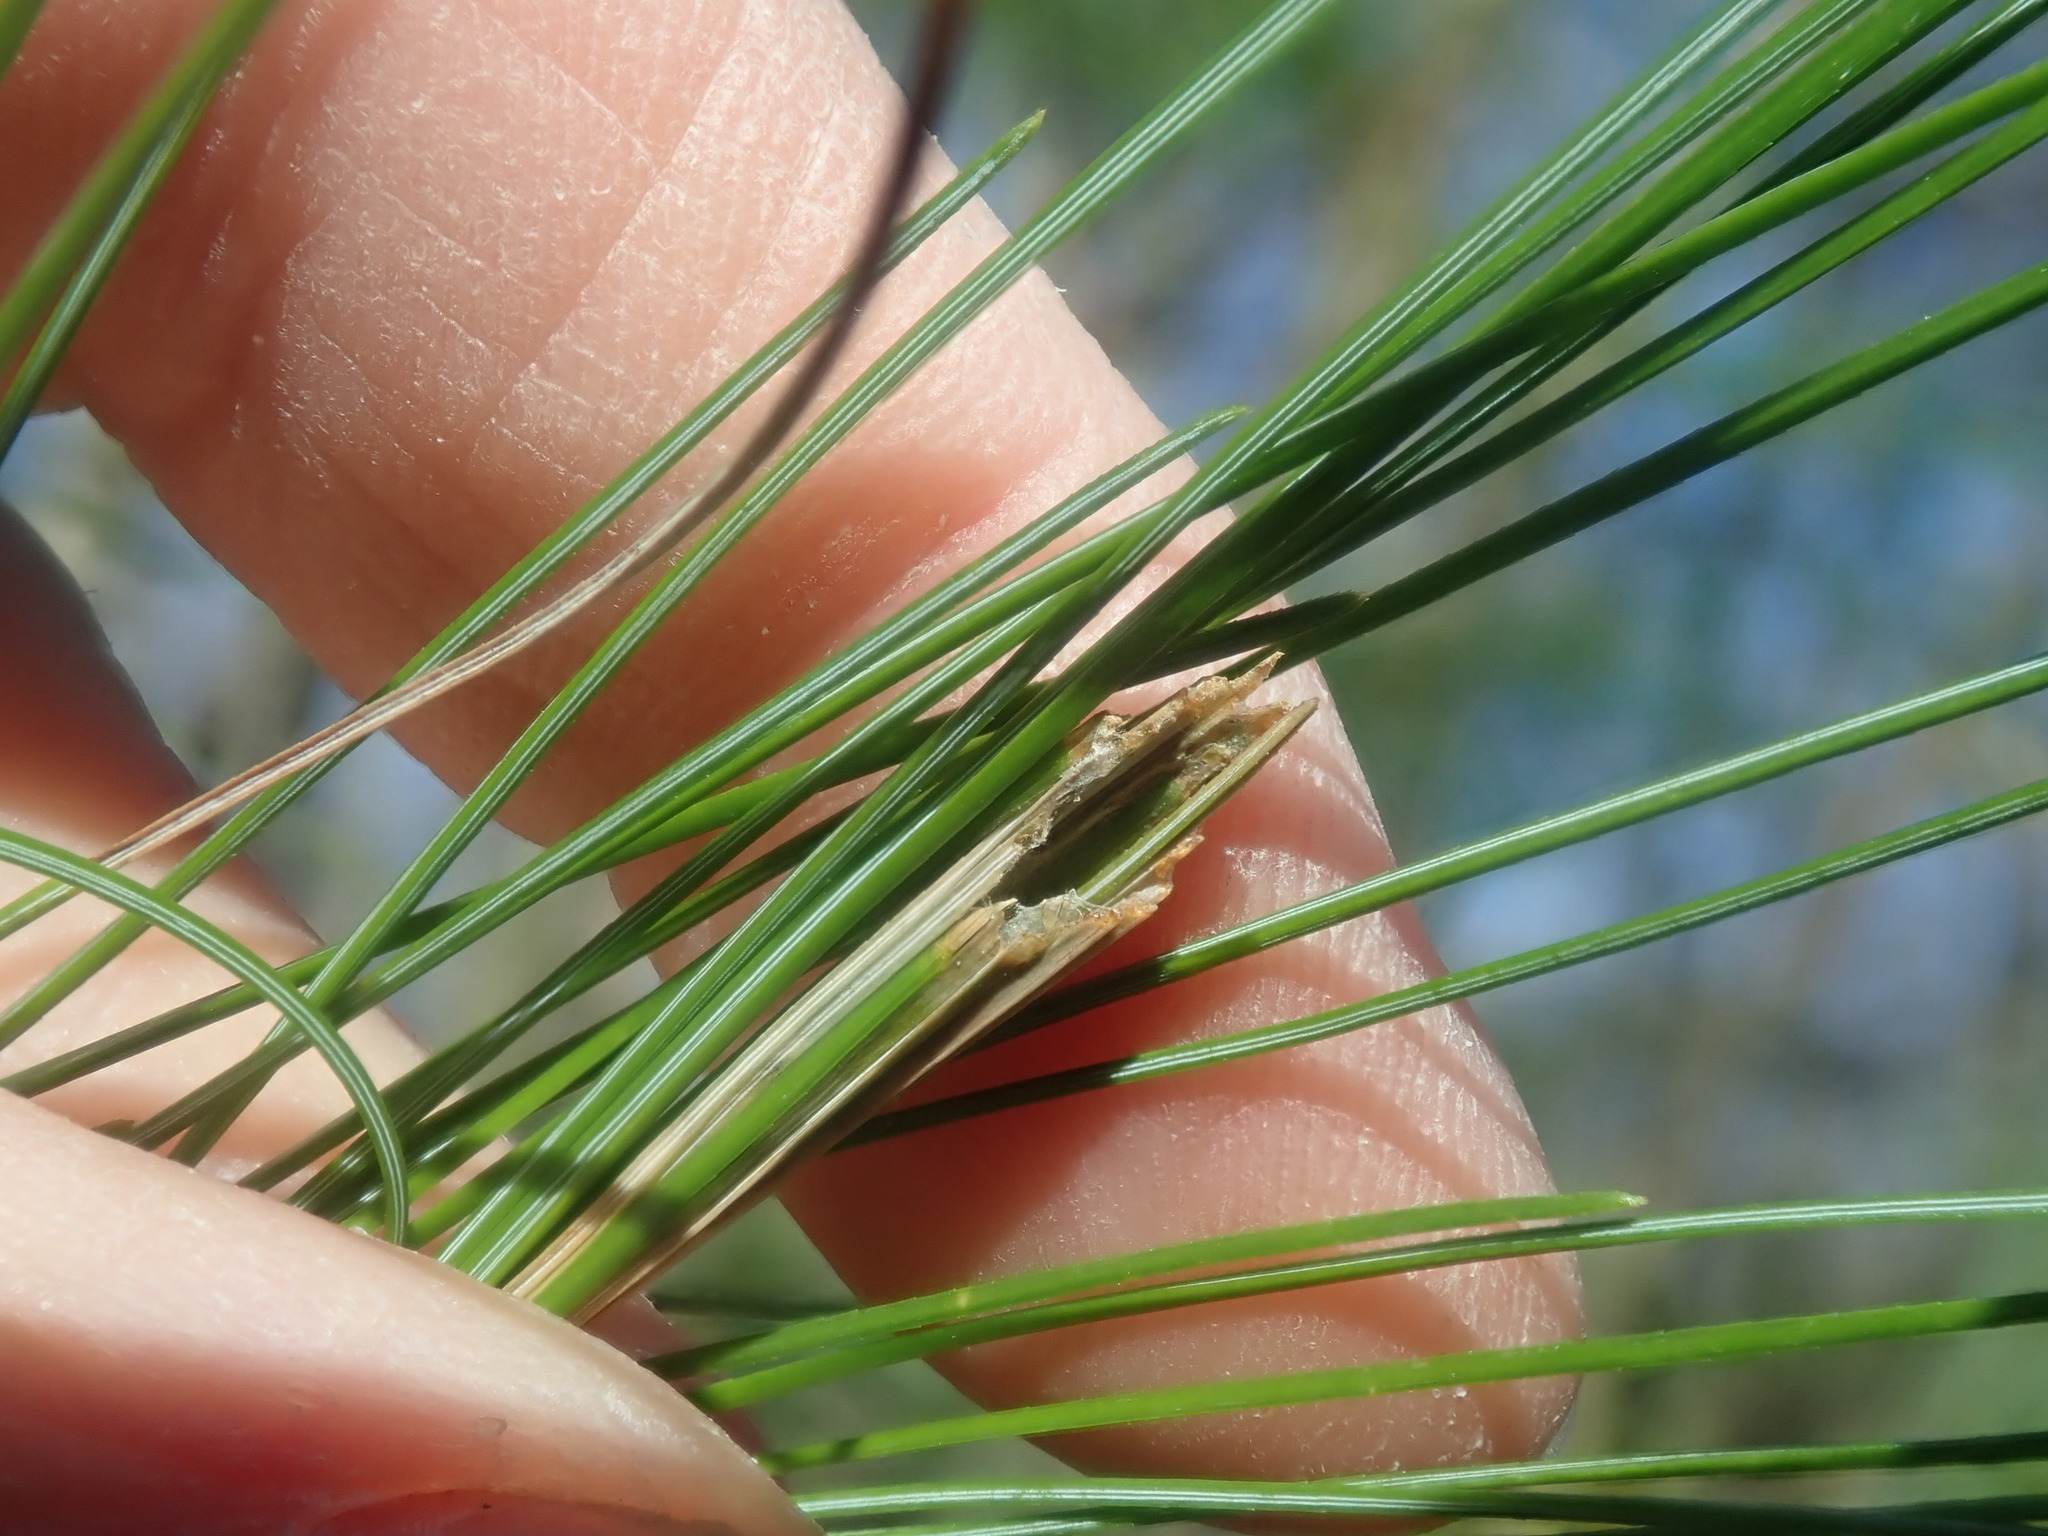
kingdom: Animalia
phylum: Arthropoda
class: Insecta
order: Lepidoptera
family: Tortricidae
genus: Argyrotaenia
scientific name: Argyrotaenia pinatubana
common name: Pine tube moth
